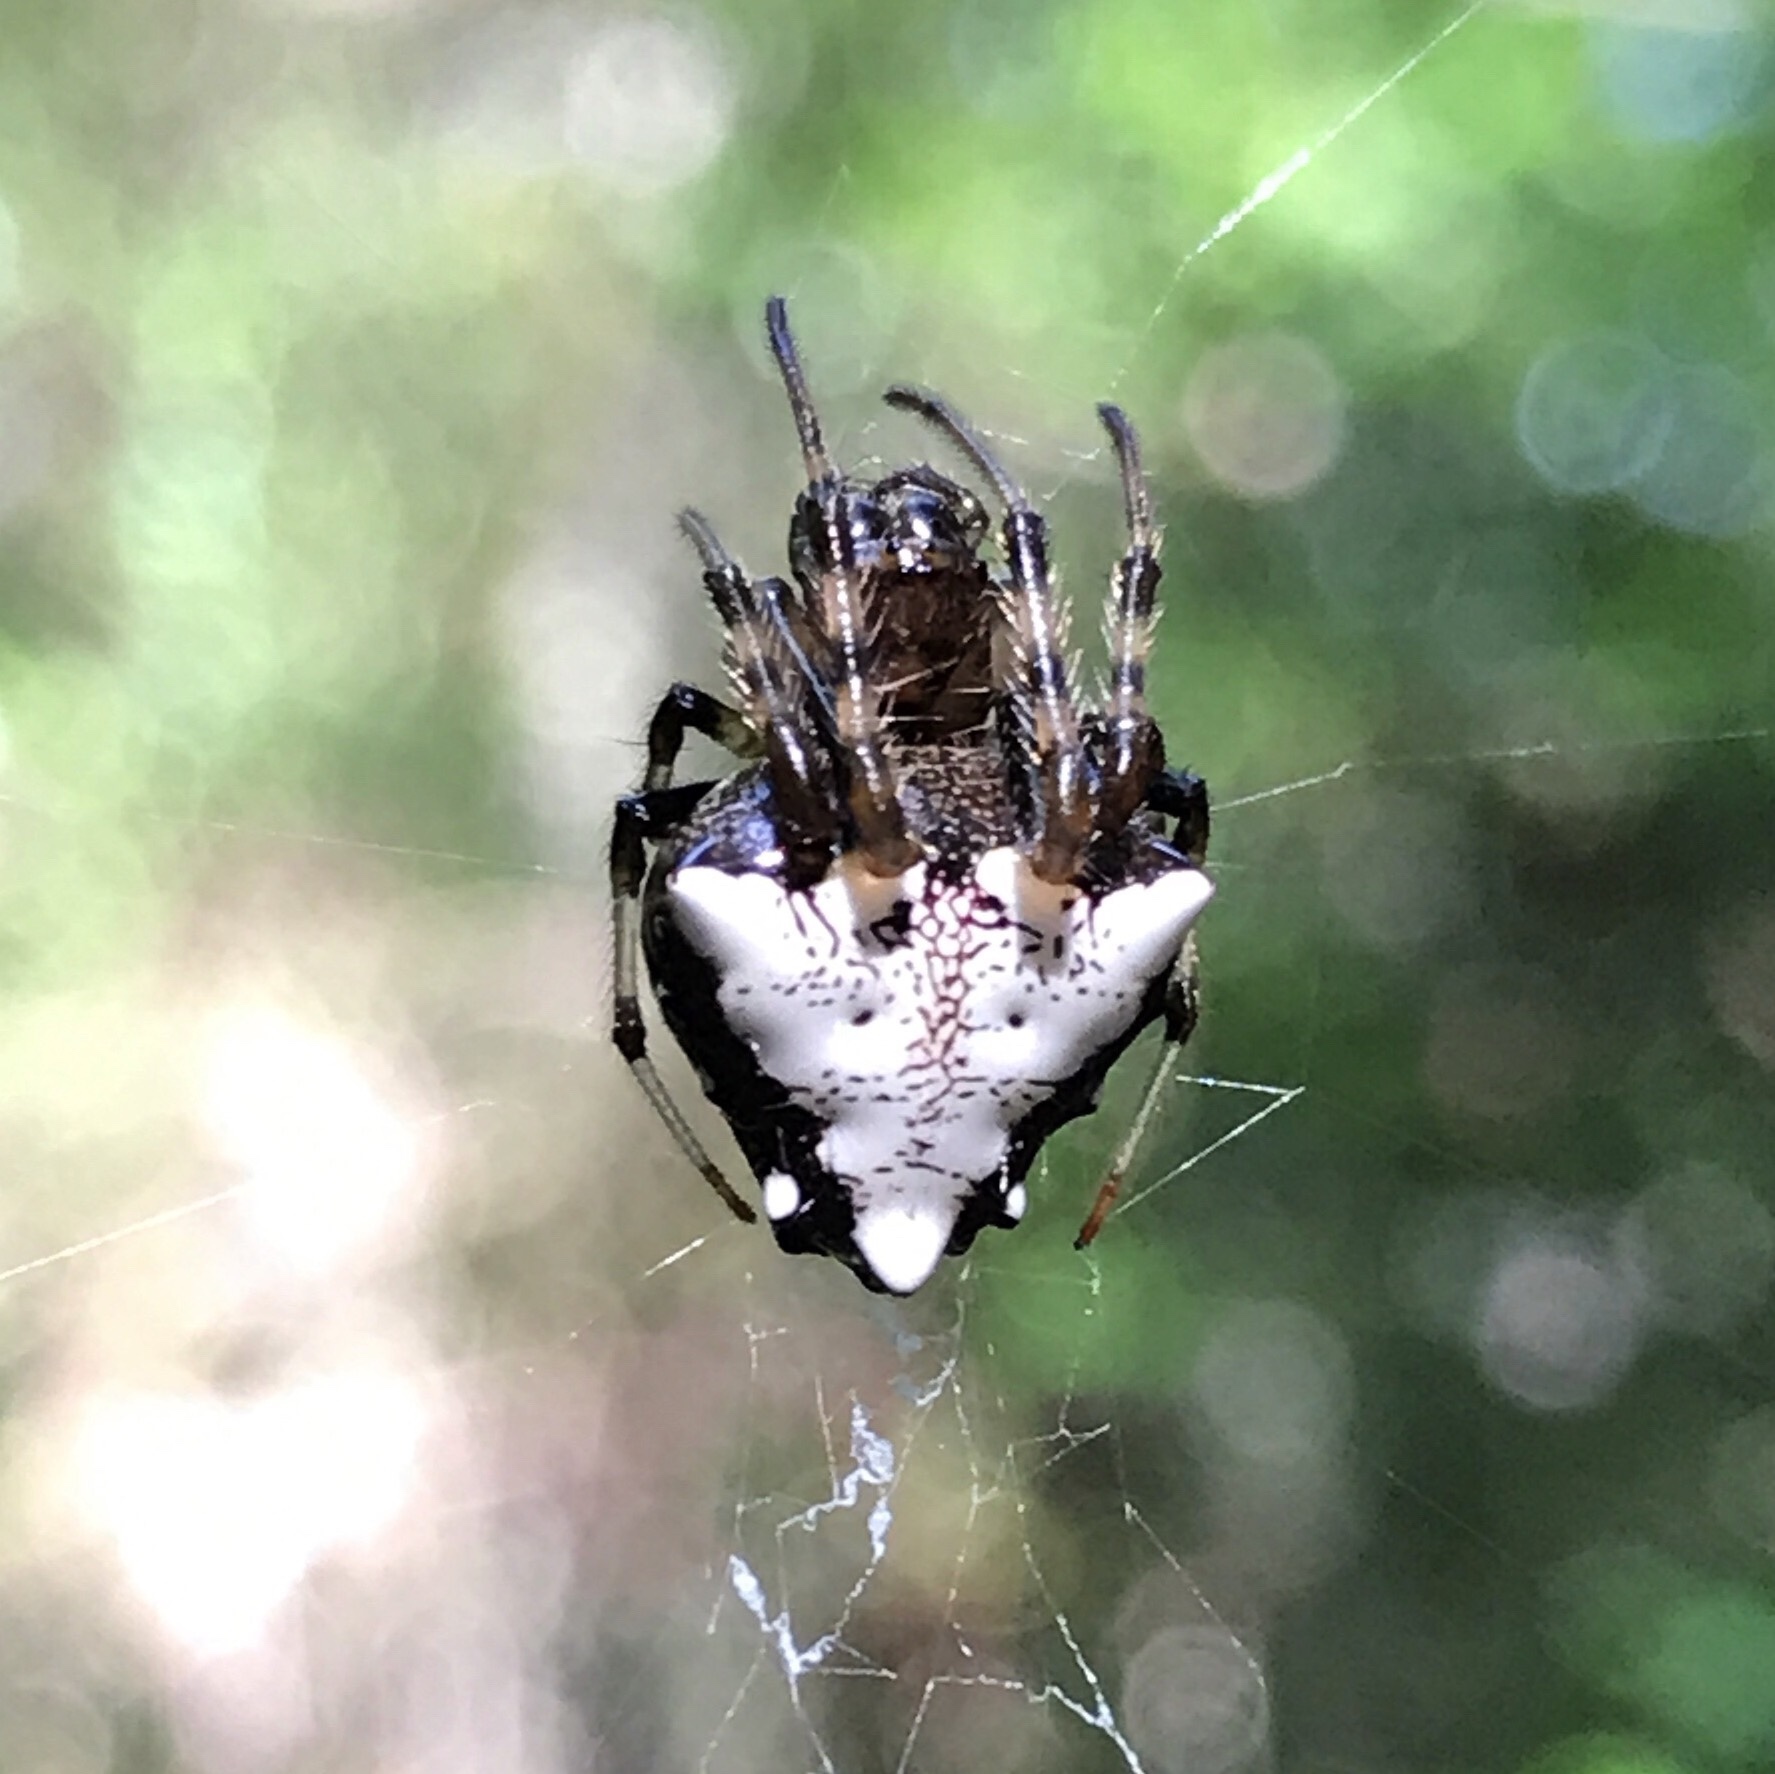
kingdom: Animalia
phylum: Arthropoda
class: Arachnida
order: Araneae
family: Araneidae
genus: Verrucosa
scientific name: Verrucosa arenata
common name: Orb weavers
